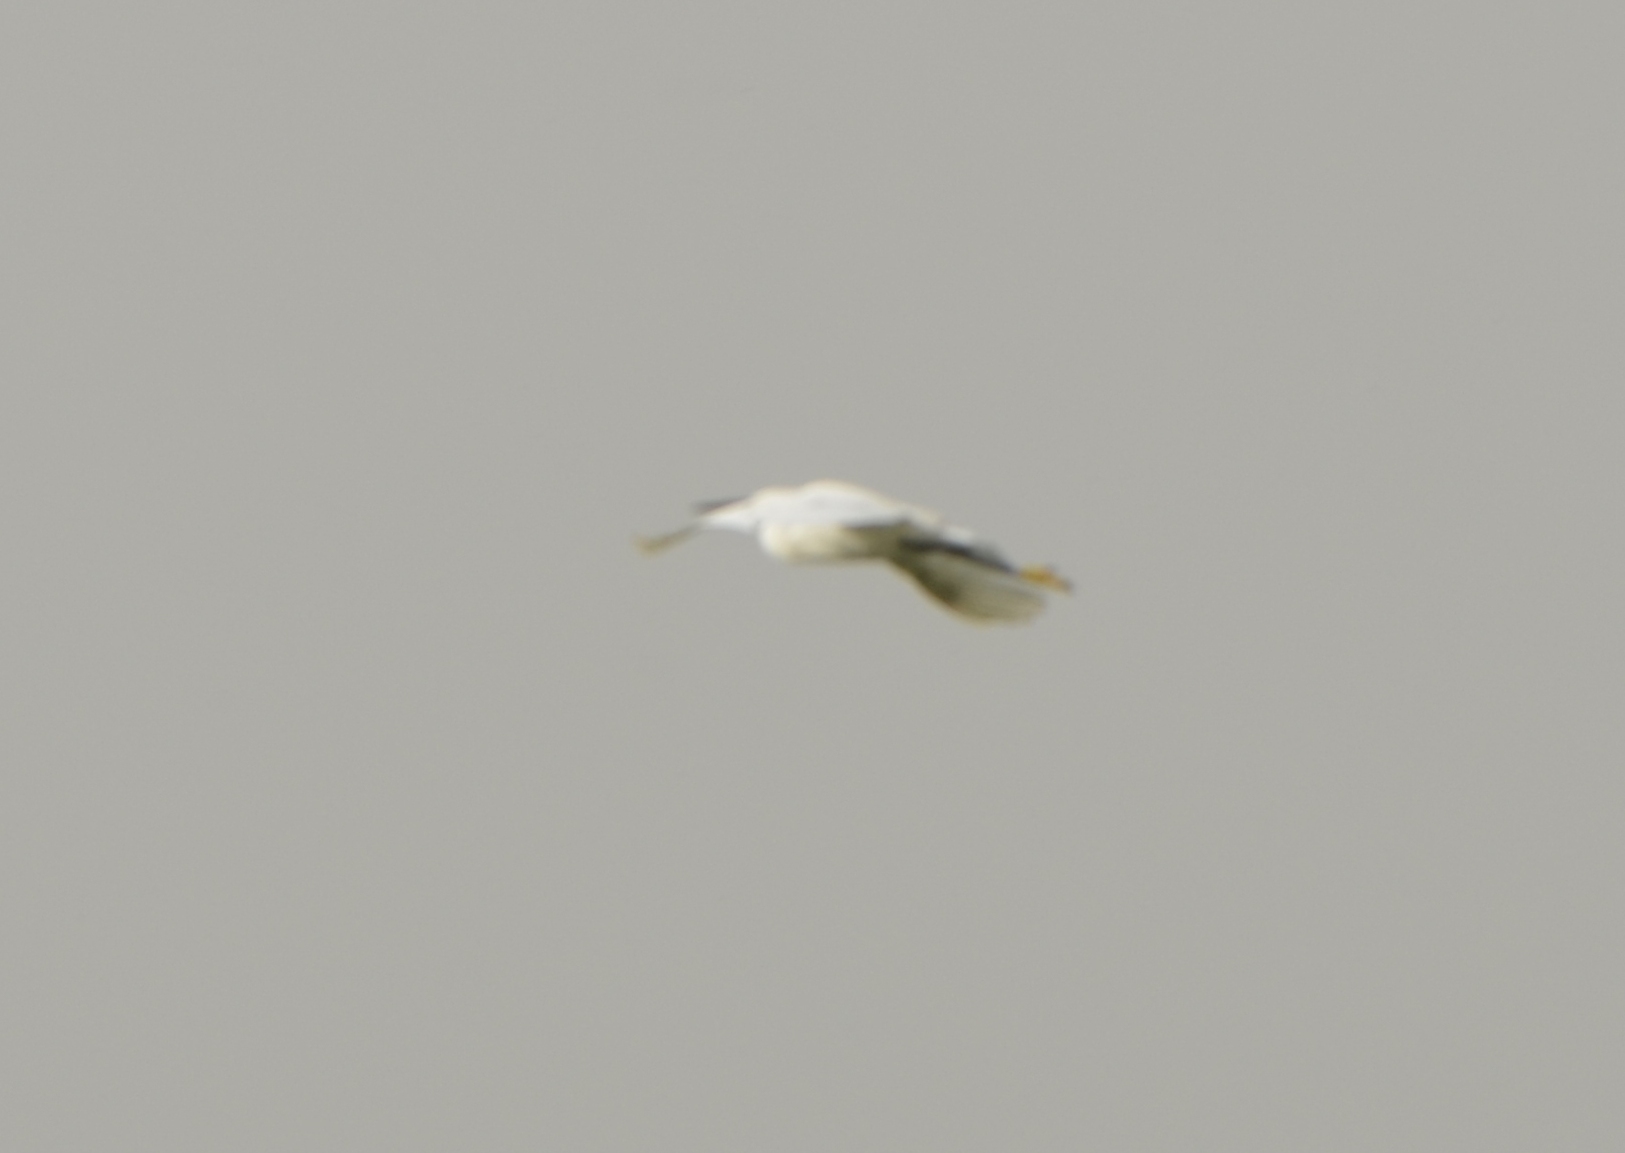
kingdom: Animalia
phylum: Chordata
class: Aves
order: Pelecaniformes
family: Ardeidae
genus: Egretta
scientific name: Egretta garzetta
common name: Little egret
